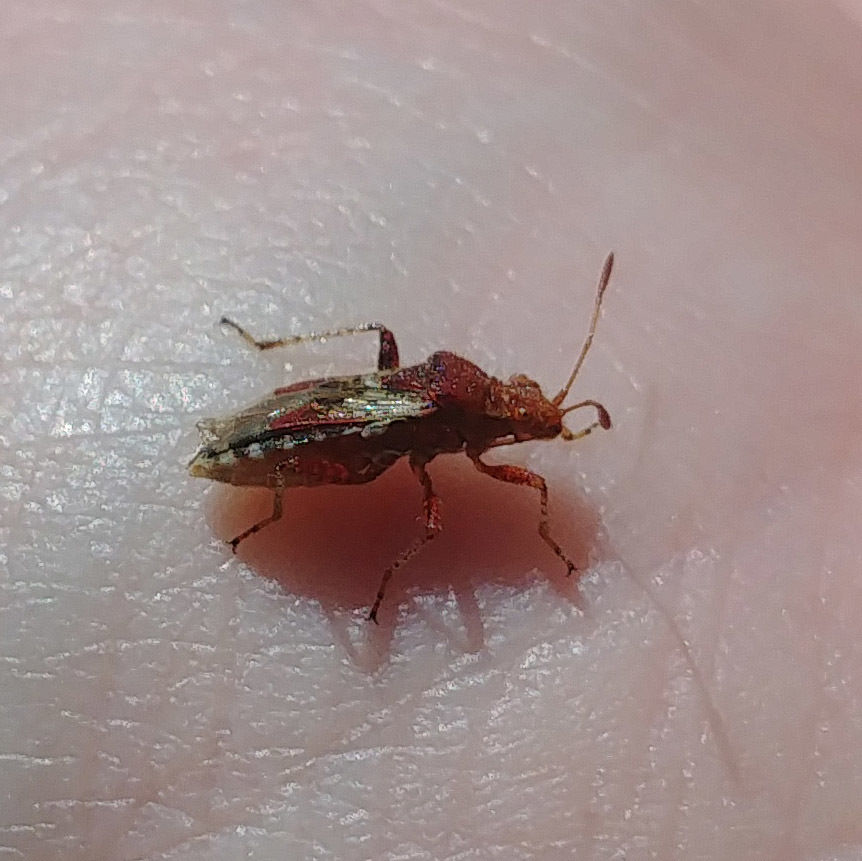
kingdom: Animalia
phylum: Arthropoda
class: Insecta
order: Hemiptera
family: Rhopalidae
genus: Rhopalus
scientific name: Rhopalus subrufus
